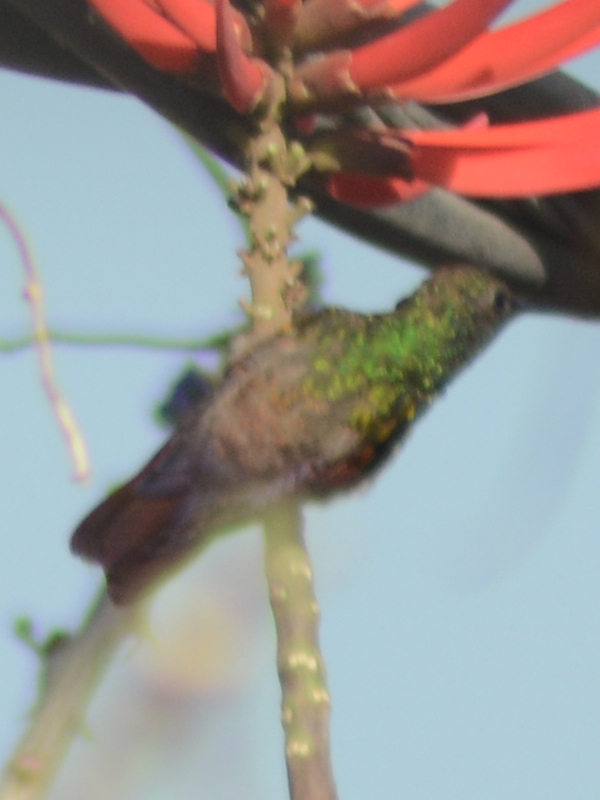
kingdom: Animalia
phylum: Chordata
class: Aves
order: Apodiformes
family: Trochilidae
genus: Saucerottia
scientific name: Saucerottia beryllina
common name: Berylline hummingbird
